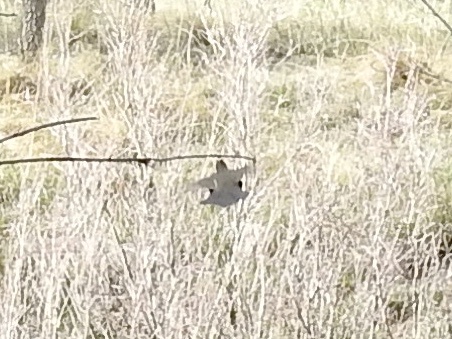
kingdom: Animalia
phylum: Chordata
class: Aves
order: Galliformes
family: Odontophoridae
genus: Callipepla
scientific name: Callipepla gambelii
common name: Gambel's quail
